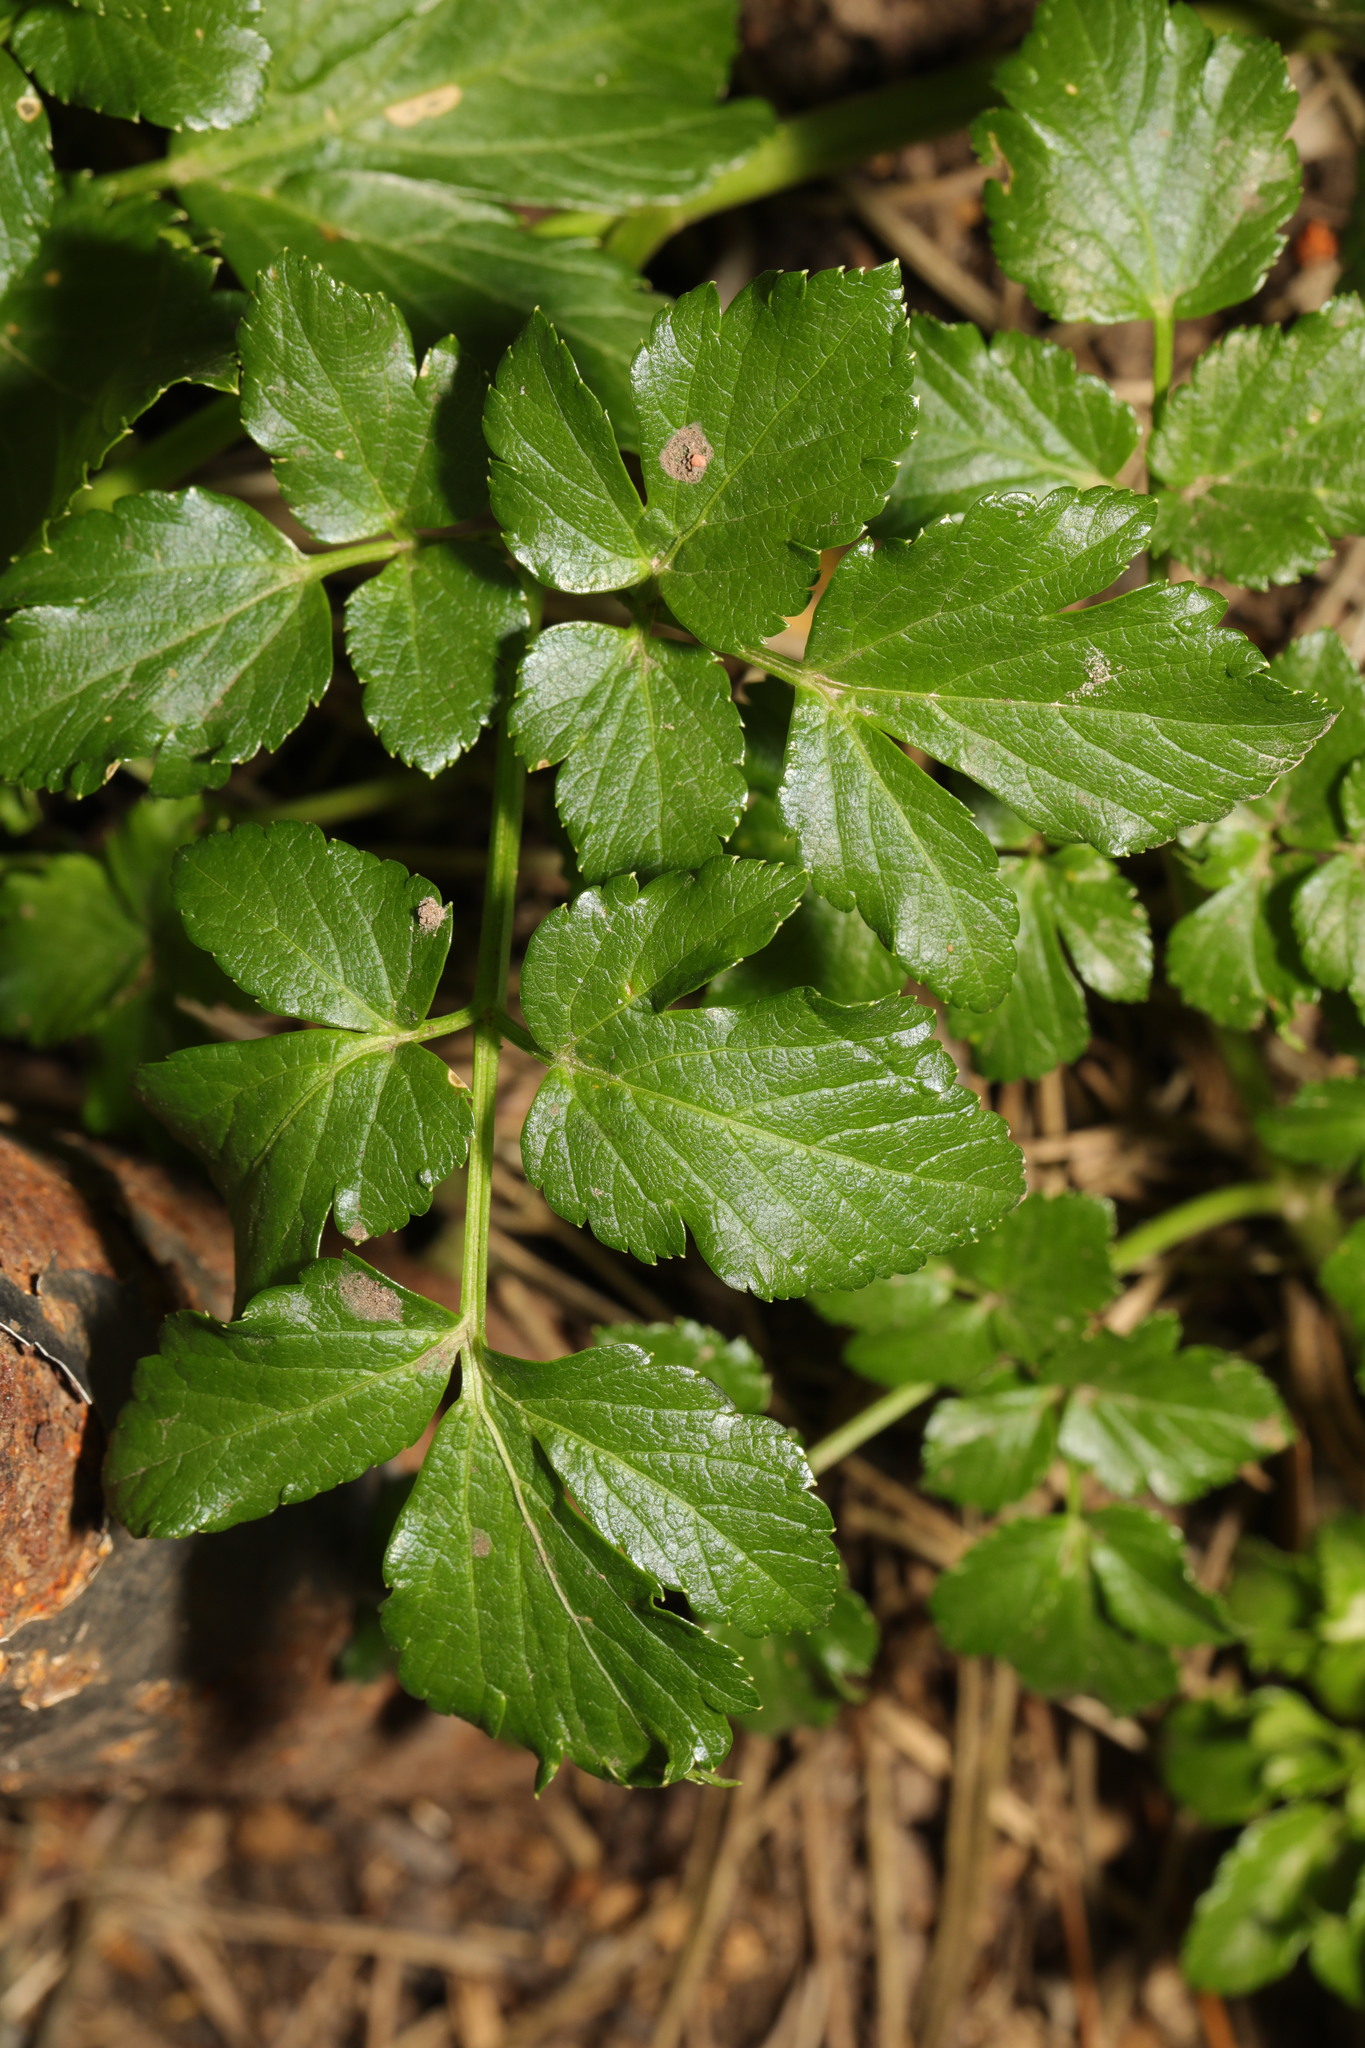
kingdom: Plantae
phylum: Tracheophyta
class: Magnoliopsida
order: Apiales
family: Apiaceae
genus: Smyrnium
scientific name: Smyrnium olusatrum
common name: Alexanders
